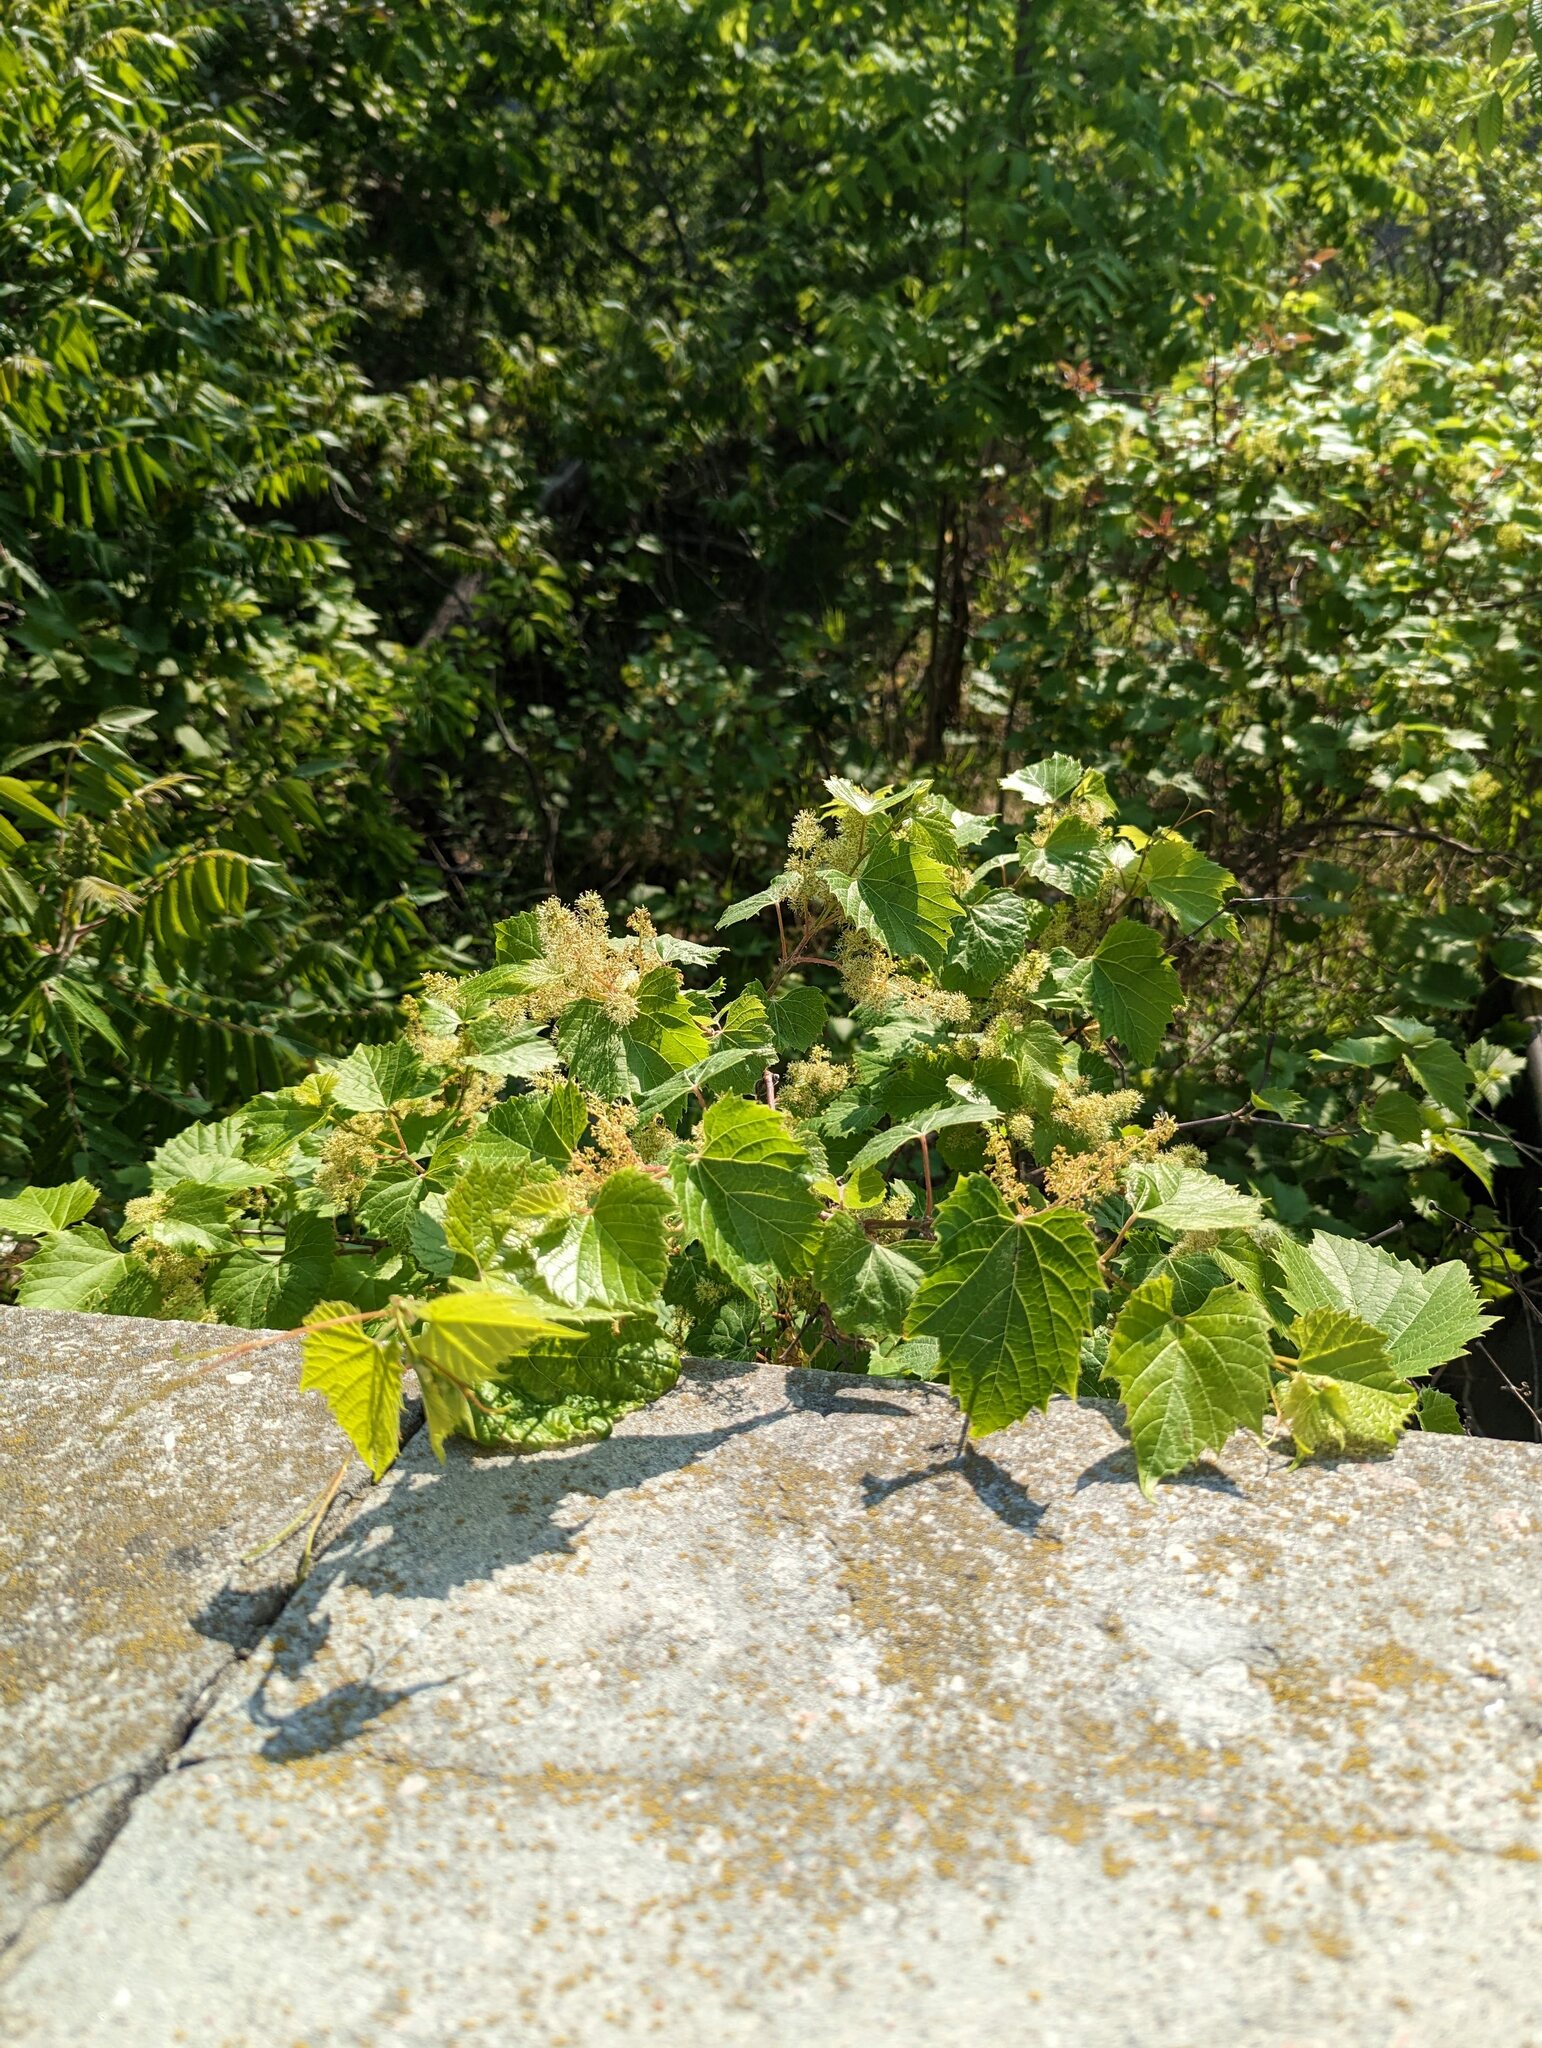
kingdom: Plantae
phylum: Tracheophyta
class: Magnoliopsida
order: Vitales
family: Vitaceae
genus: Vitis
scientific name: Vitis riparia
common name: Frost grape
